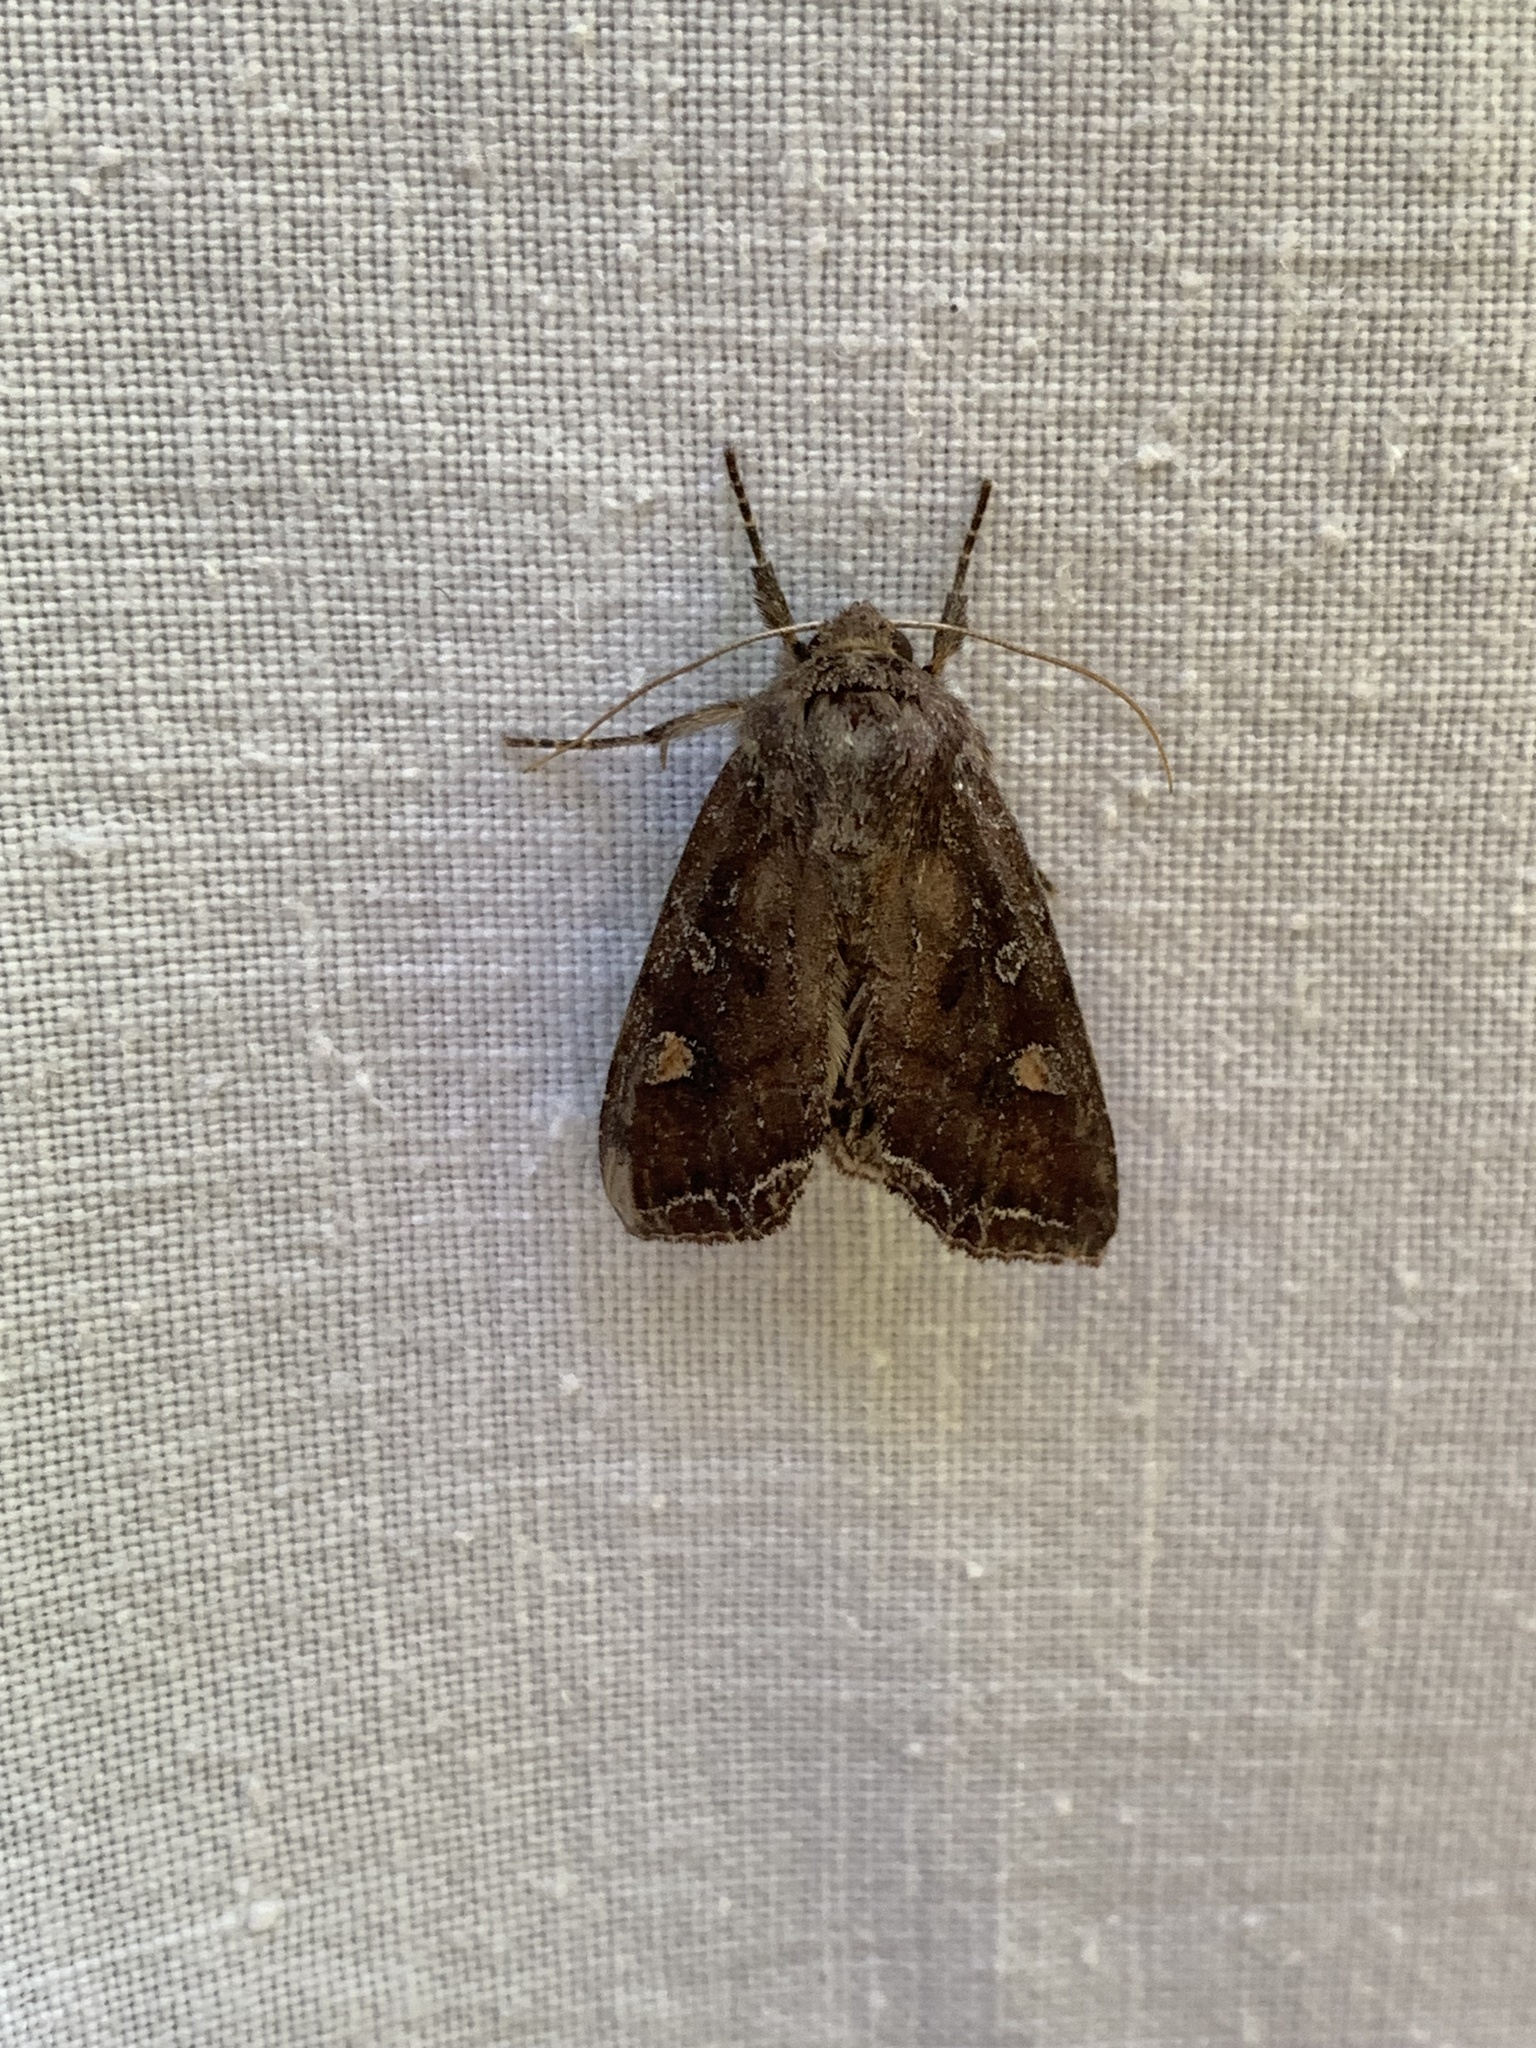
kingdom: Animalia
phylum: Arthropoda
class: Insecta
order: Lepidoptera
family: Noctuidae
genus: Lacanobia
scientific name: Lacanobia oleracea
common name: Bright-line brown-eye
